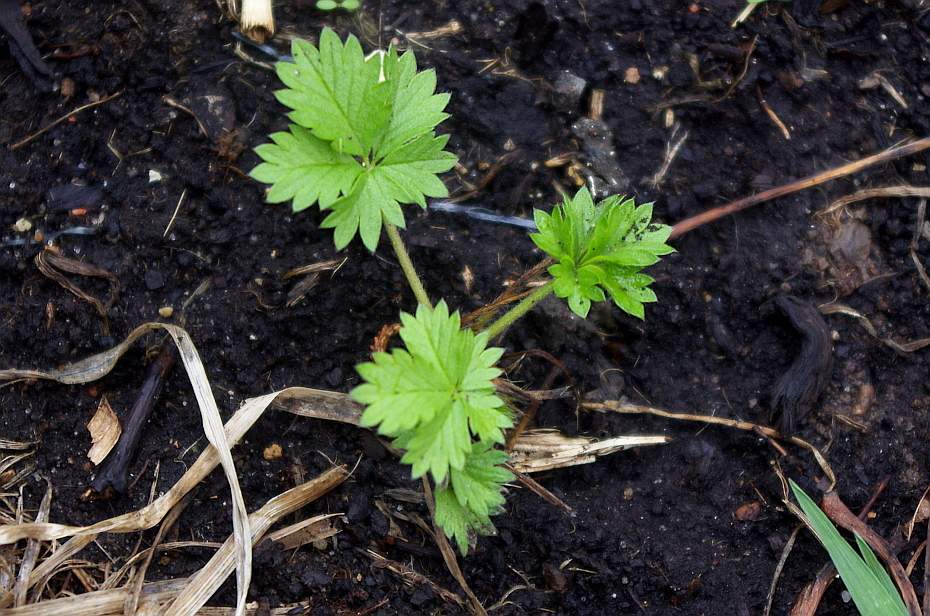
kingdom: Plantae
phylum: Tracheophyta
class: Magnoliopsida
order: Rosales
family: Rosaceae
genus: Potentilla
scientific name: Potentilla intermedia
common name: Downy cinquefoil
